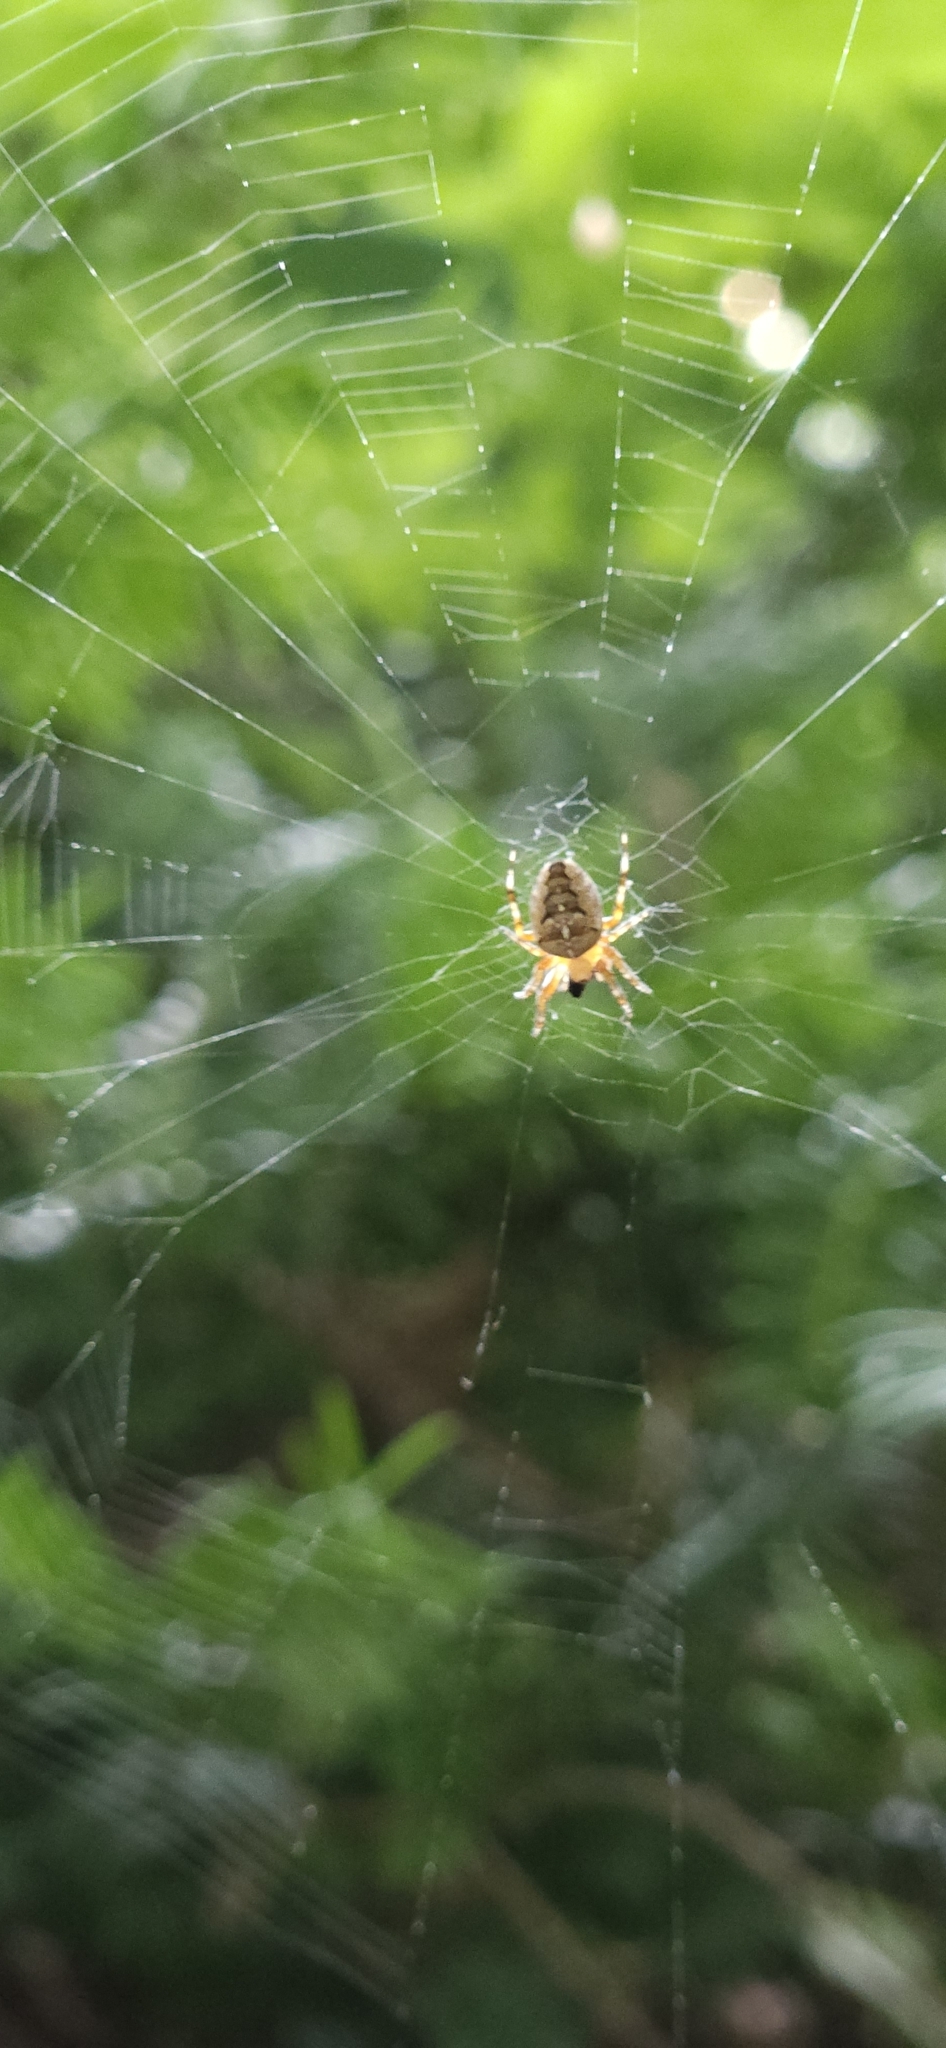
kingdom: Animalia
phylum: Arthropoda
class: Arachnida
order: Araneae
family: Araneidae
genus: Araneus
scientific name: Araneus diadematus
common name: Cross orbweaver
